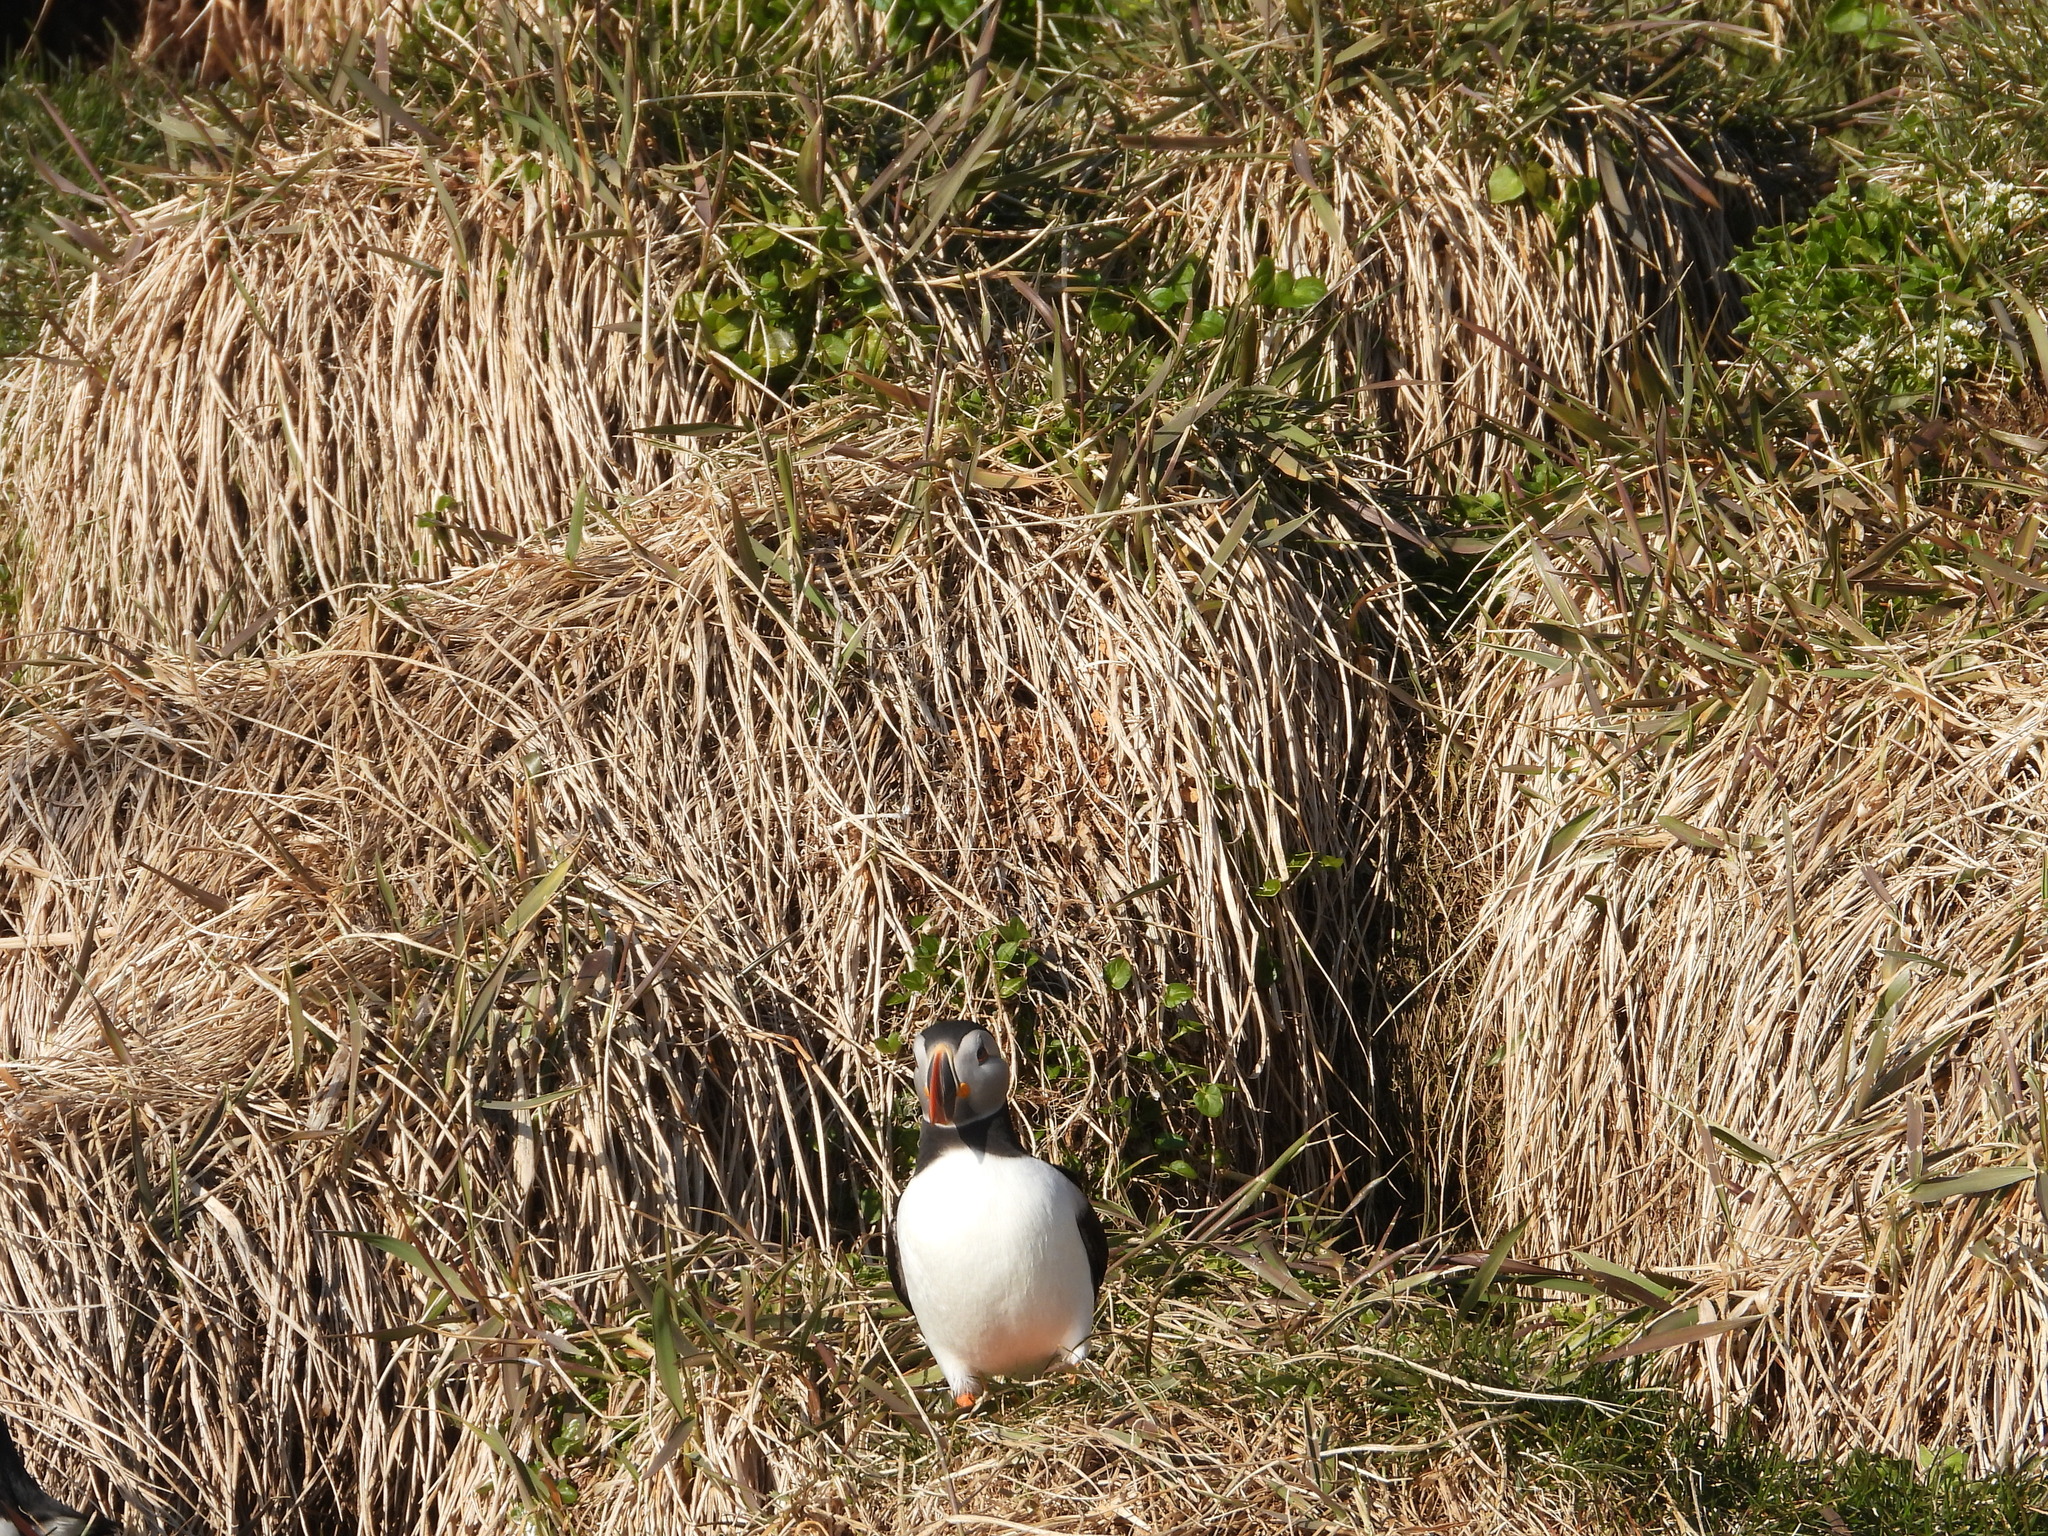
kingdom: Animalia
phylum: Chordata
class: Aves
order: Charadriiformes
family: Alcidae
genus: Fratercula
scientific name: Fratercula arctica
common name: Atlantic puffin
